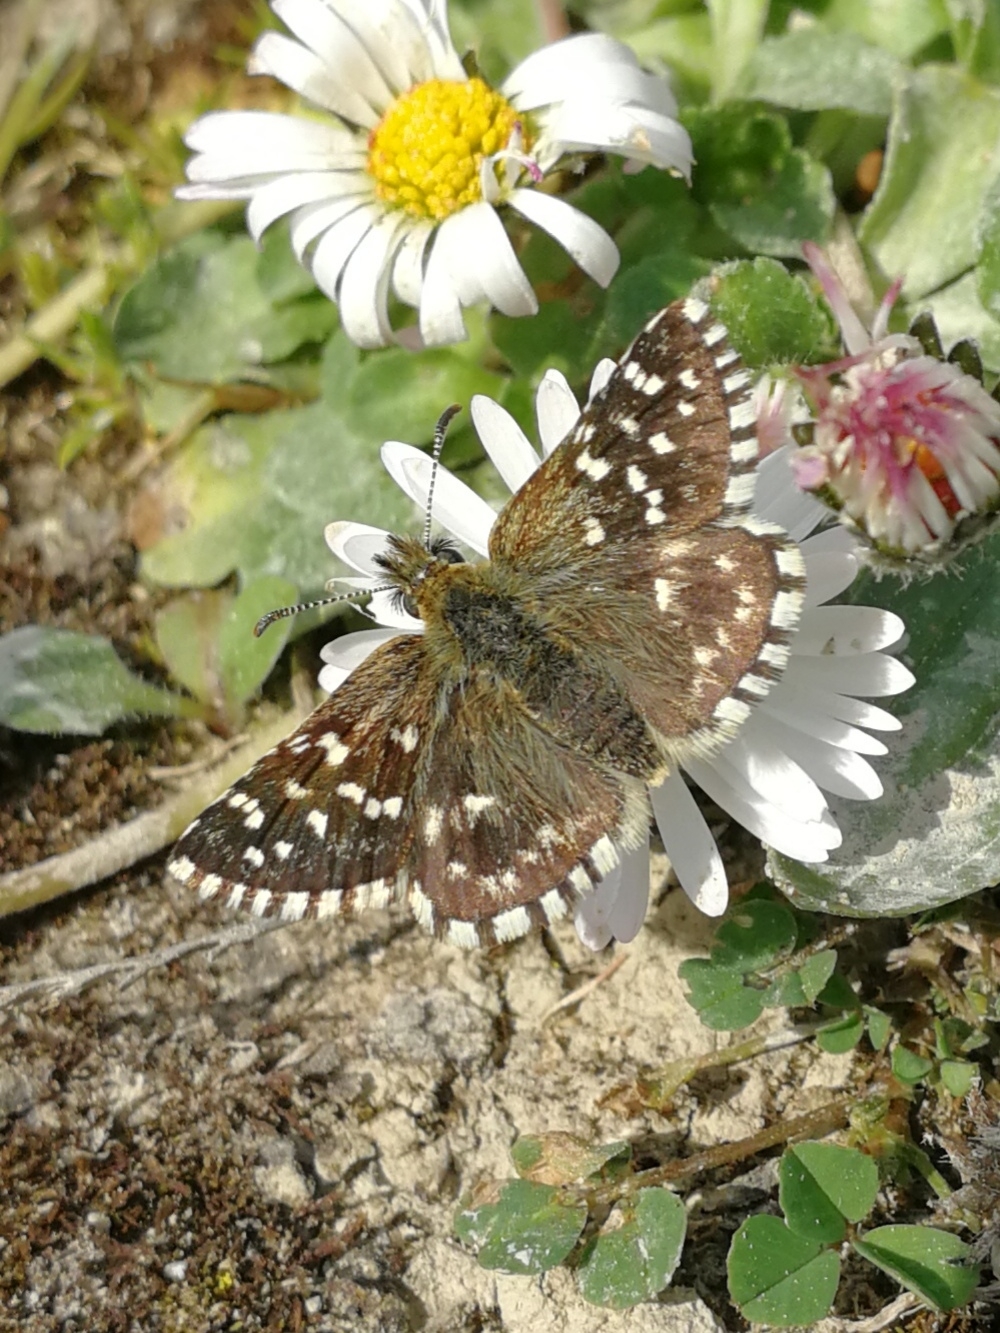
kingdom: Animalia
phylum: Arthropoda
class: Insecta
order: Lepidoptera
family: Hesperiidae
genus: Pyrgus
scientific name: Pyrgus malvoides
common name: Southern grizzled skipper
